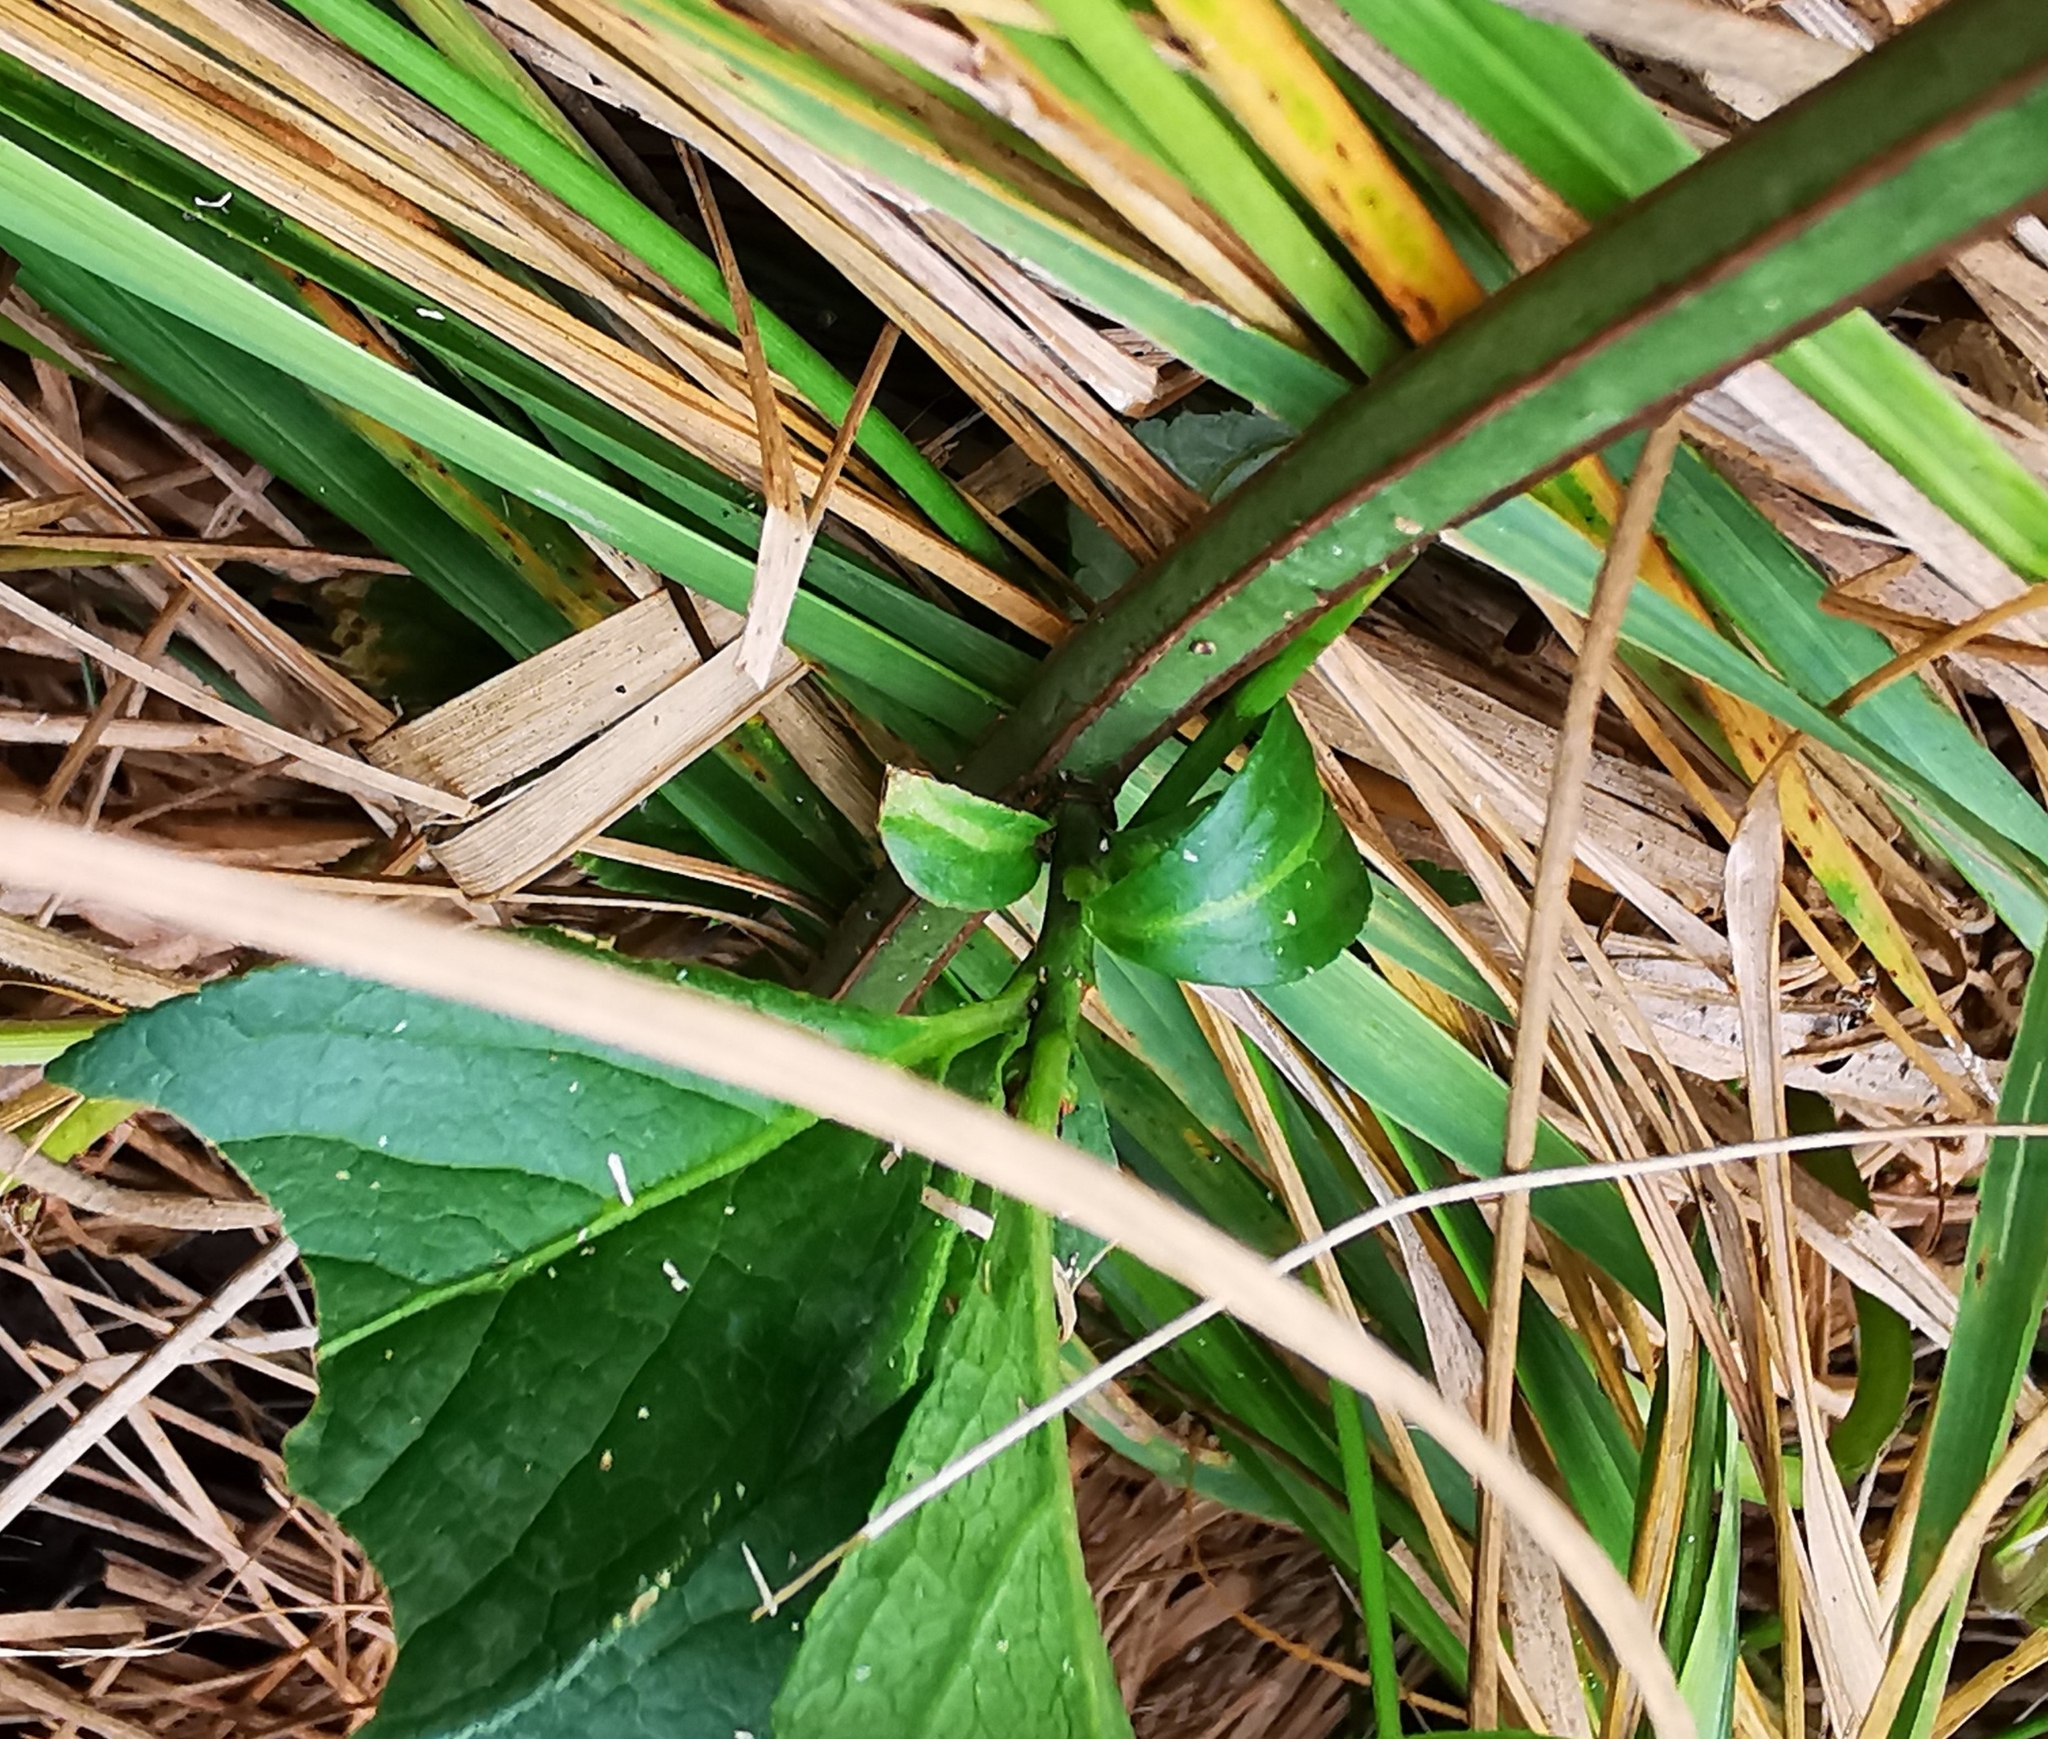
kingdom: Plantae
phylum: Tracheophyta
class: Magnoliopsida
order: Celastrales
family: Celastraceae
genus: Euonymus
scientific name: Euonymus europaeus
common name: Spindle
